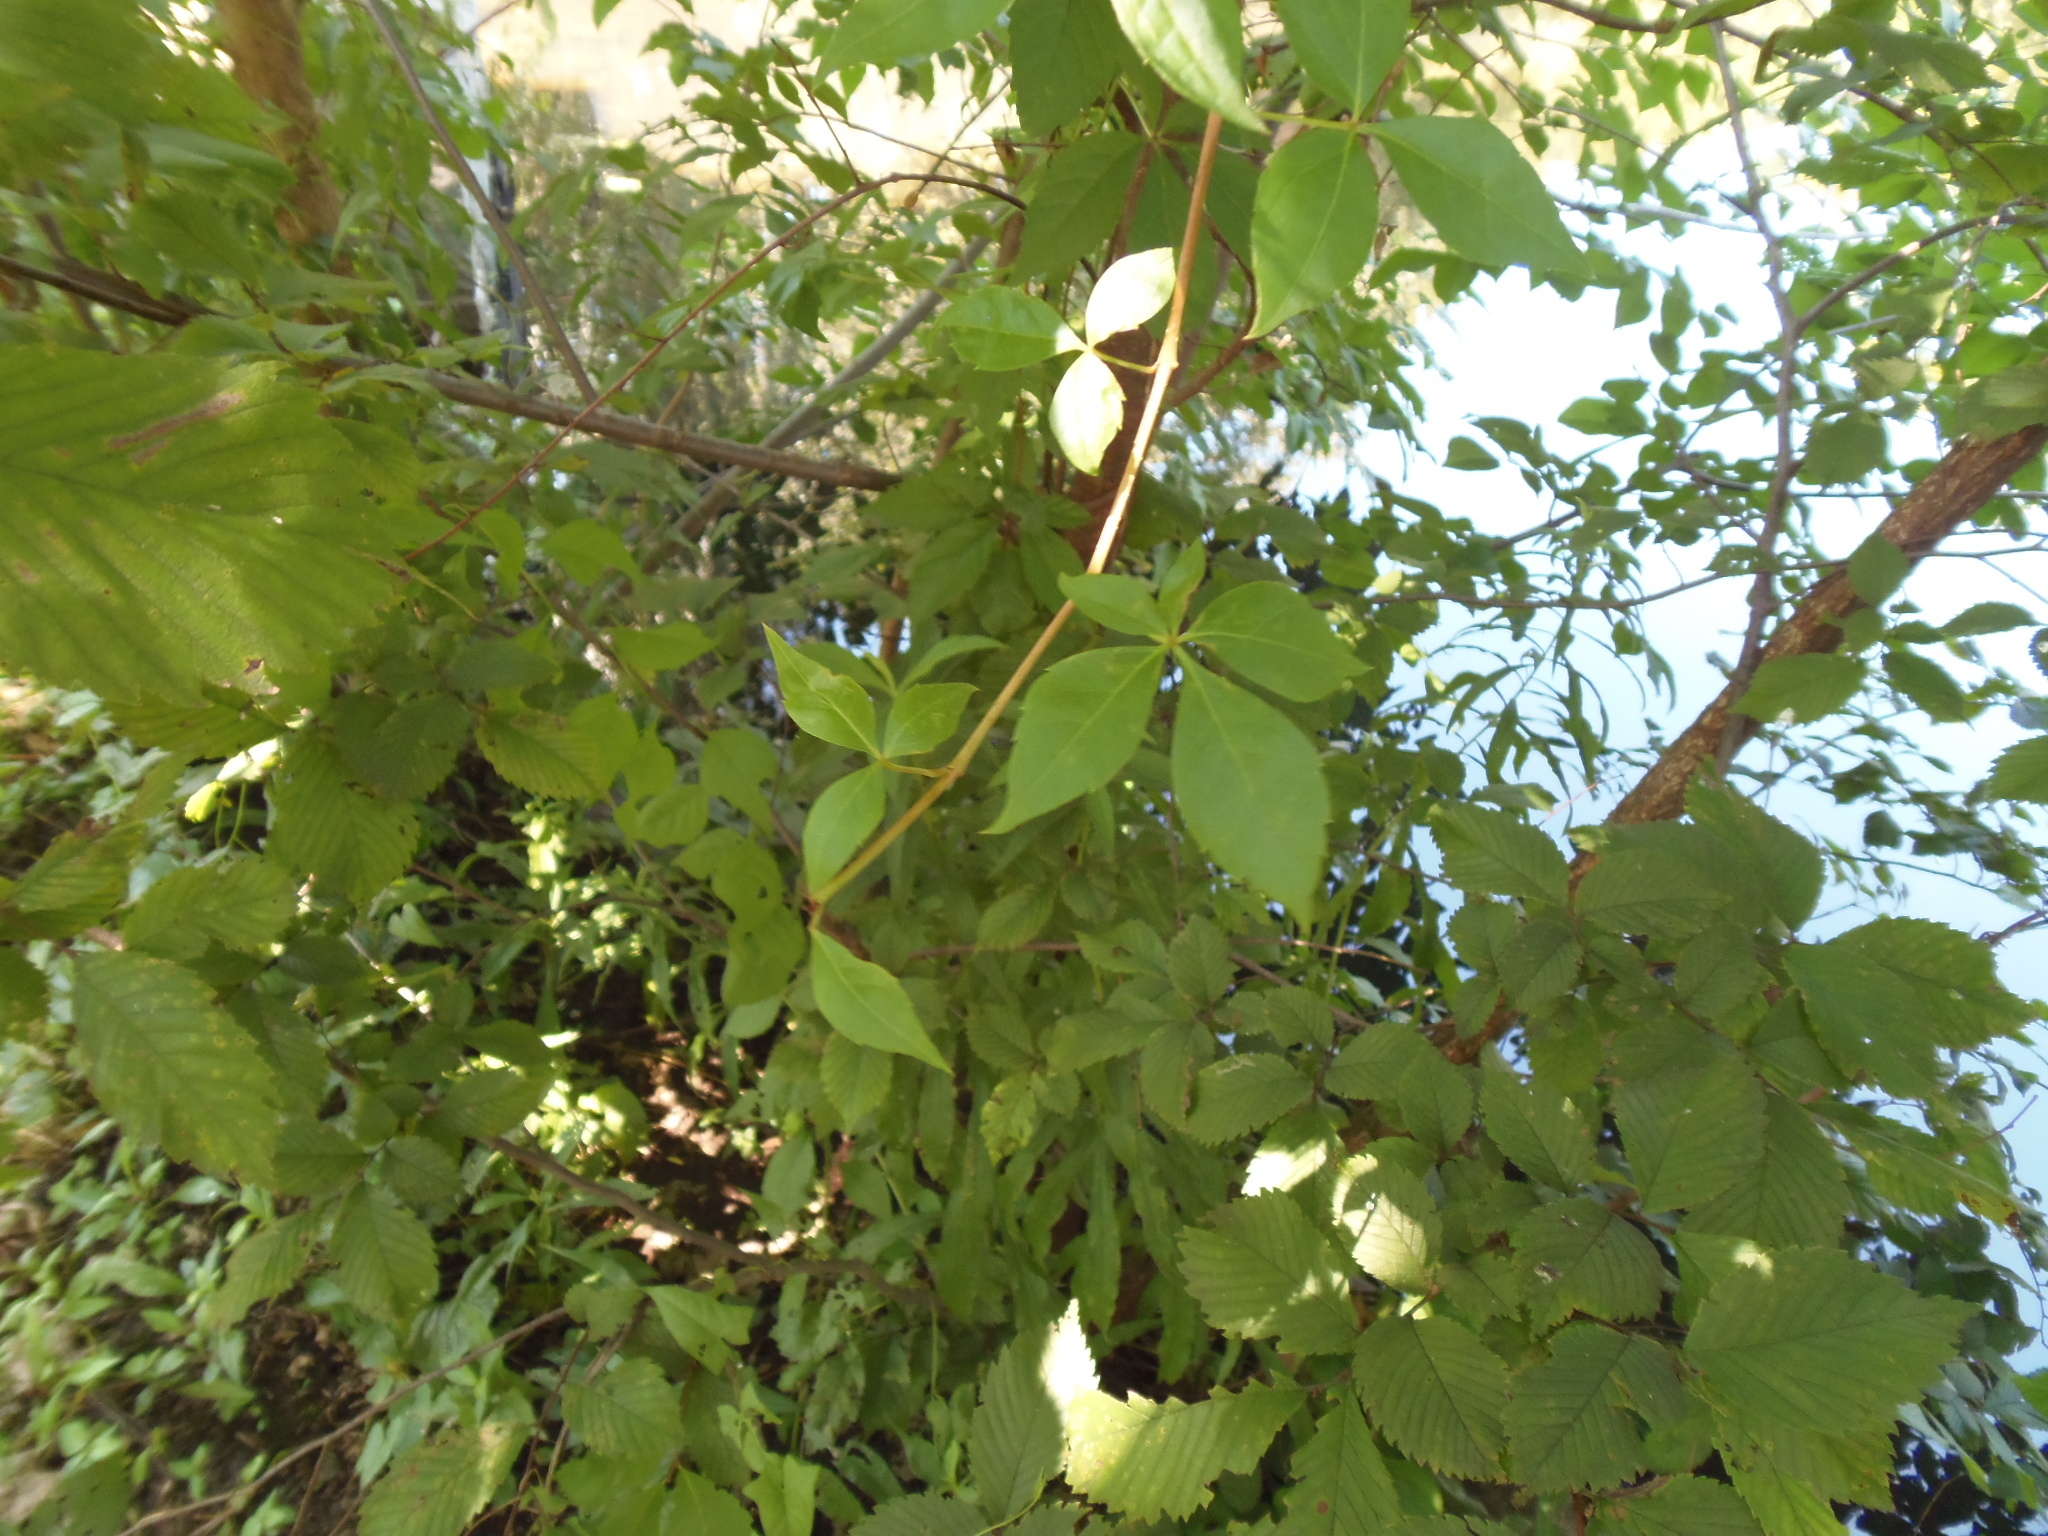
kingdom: Plantae
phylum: Tracheophyta
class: Magnoliopsida
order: Vitales
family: Vitaceae
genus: Parthenocissus
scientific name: Parthenocissus quinquefolia
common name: Virginia-creeper
